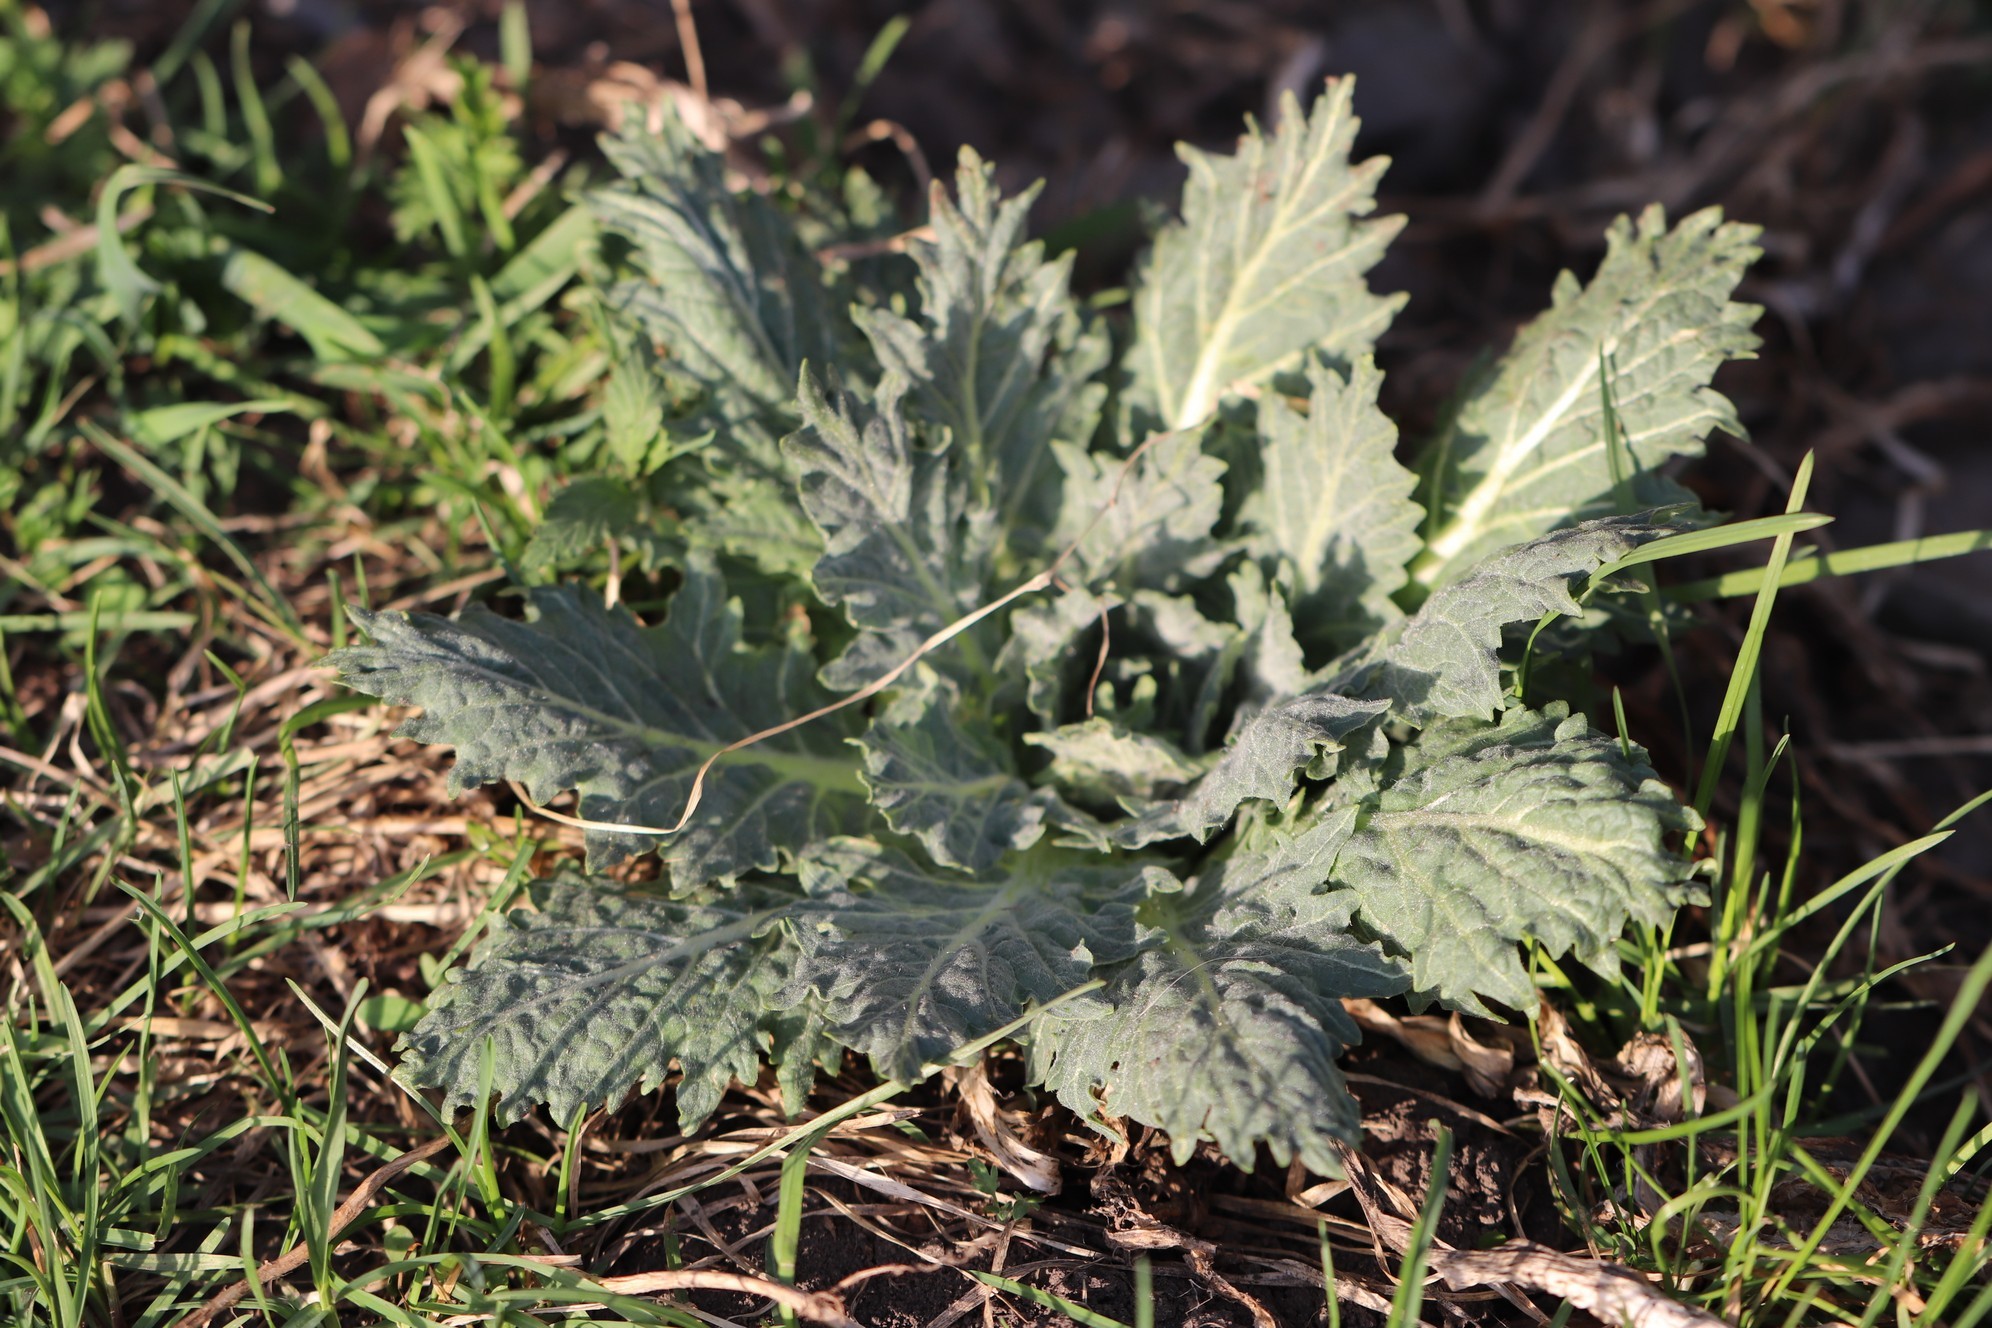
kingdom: Plantae
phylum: Tracheophyta
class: Magnoliopsida
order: Solanales
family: Solanaceae
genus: Hyoscyamus
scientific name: Hyoscyamus niger
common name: Henbane
